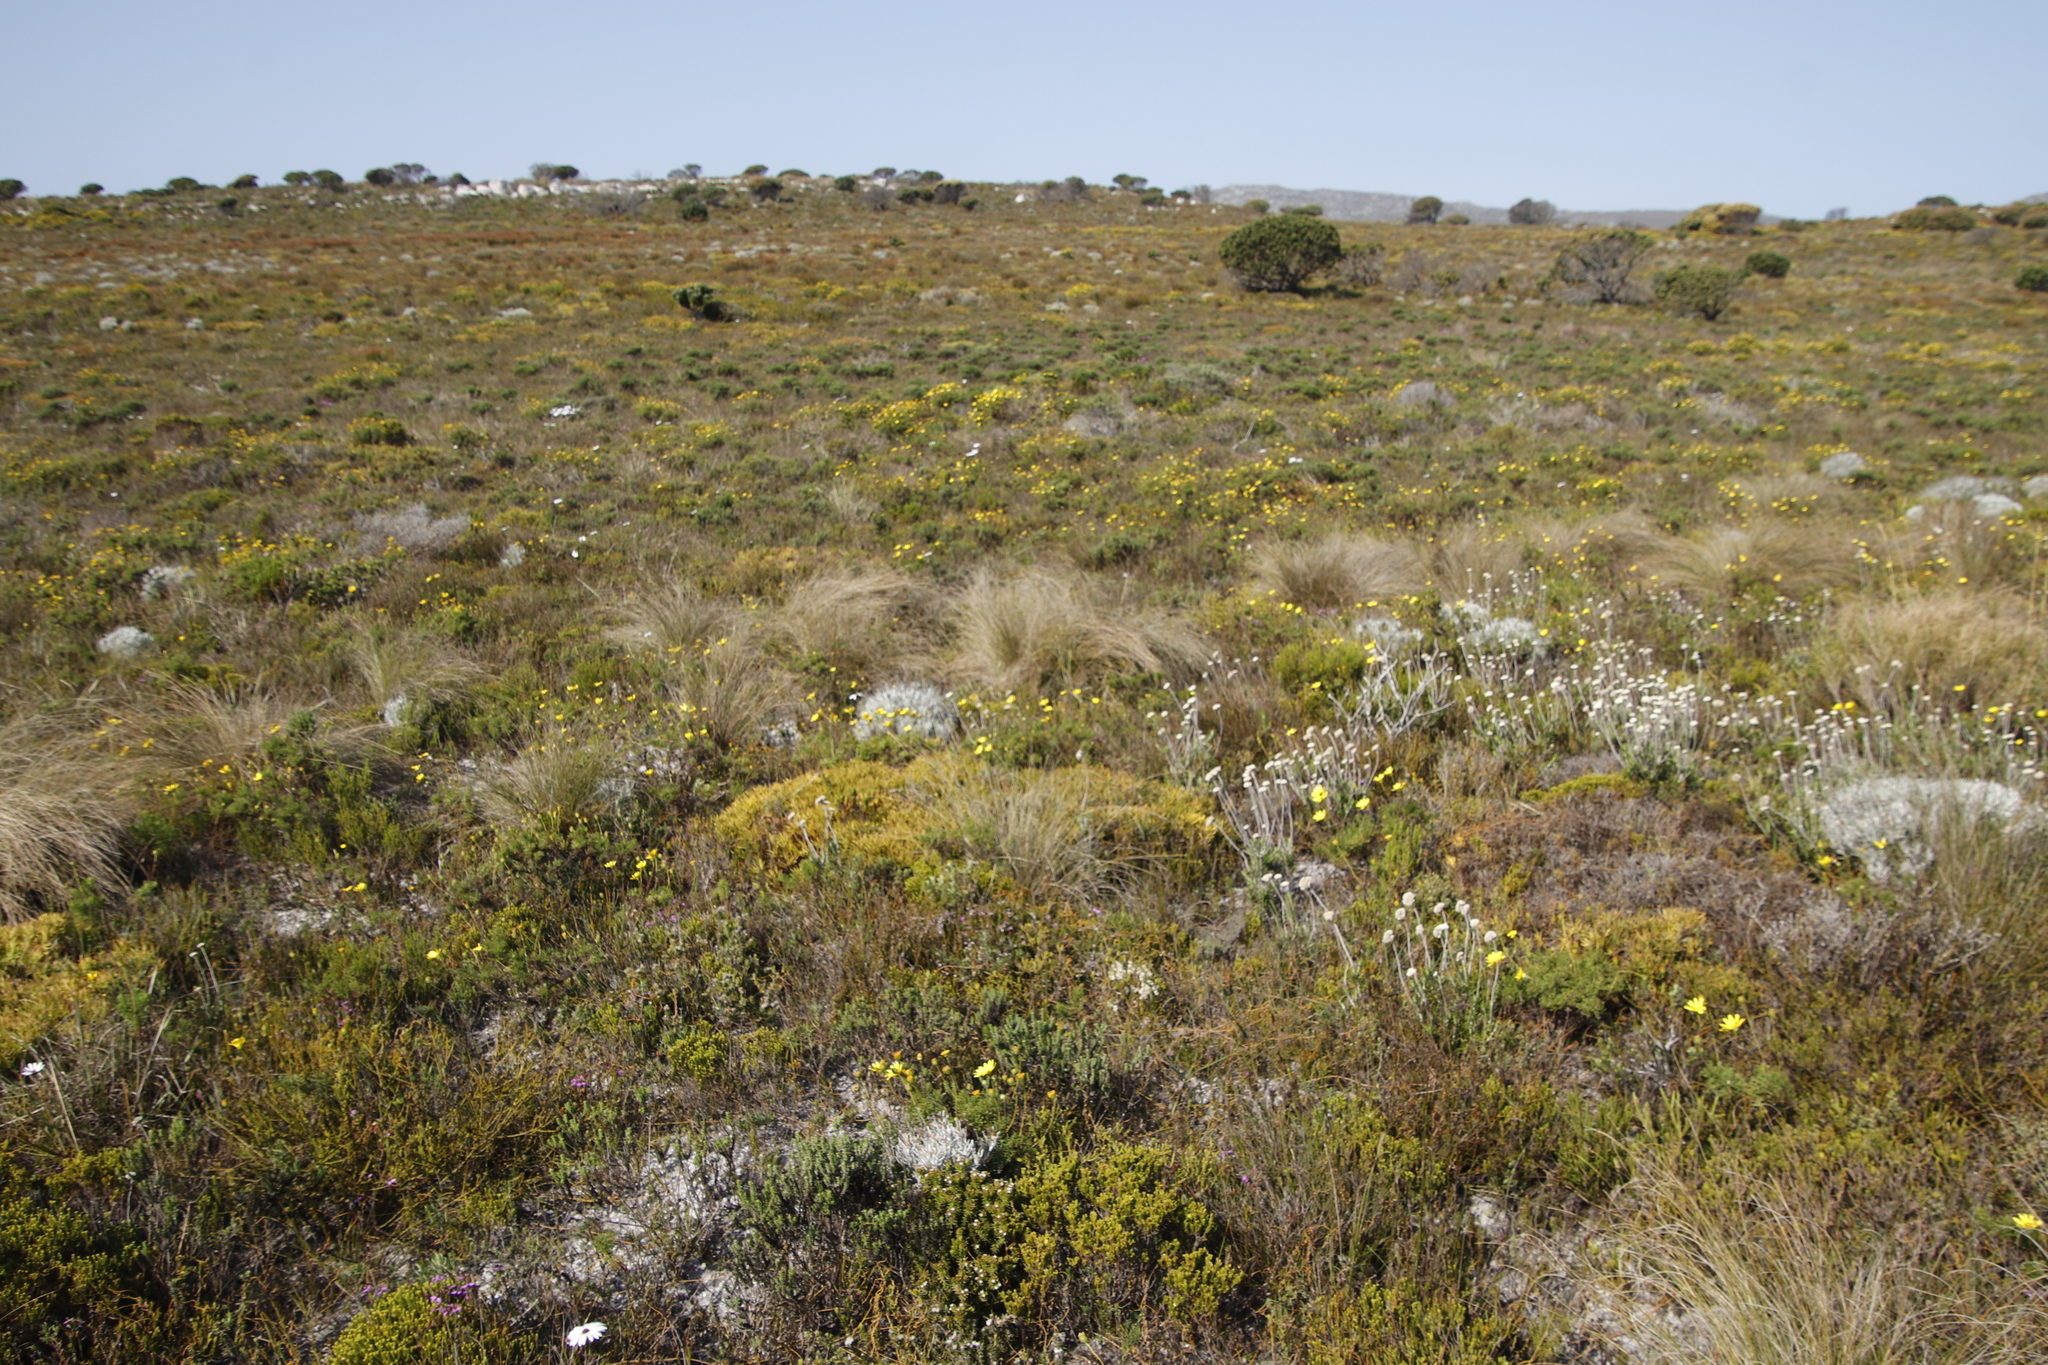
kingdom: Plantae
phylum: Tracheophyta
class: Magnoliopsida
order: Proteales
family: Proteaceae
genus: Leucadendron
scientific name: Leucadendron salignum
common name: Common sunshine conebush
